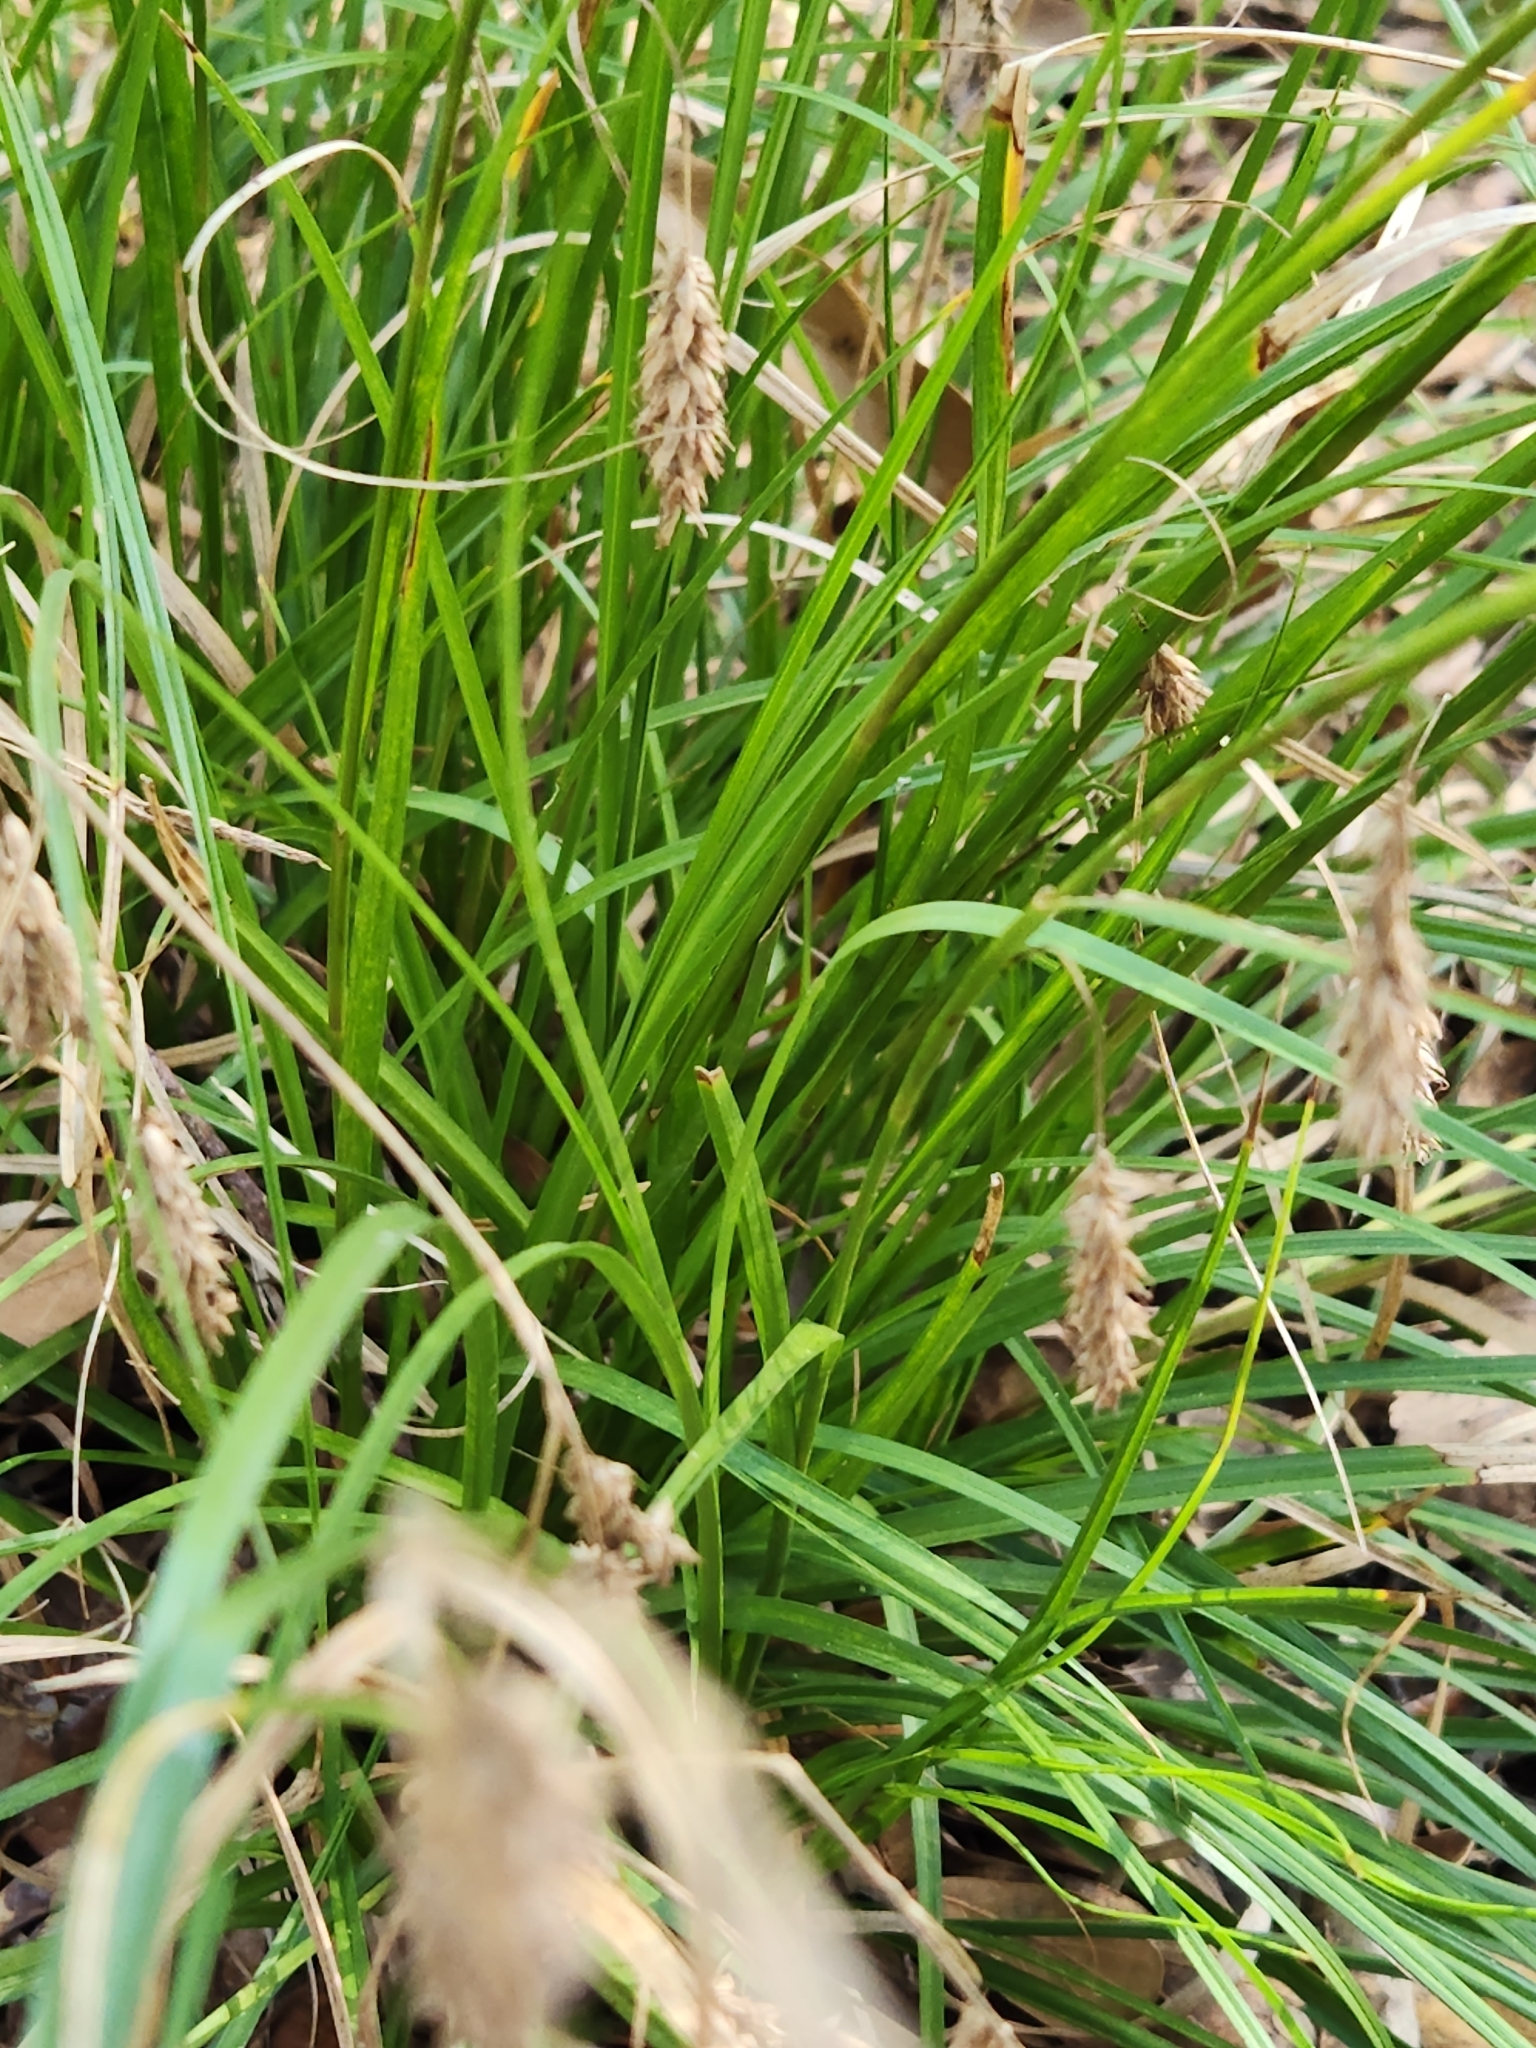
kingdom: Plantae
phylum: Tracheophyta
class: Liliopsida
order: Poales
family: Cyperaceae
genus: Carex
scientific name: Carex cherokeensis
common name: Cherokee sedge
